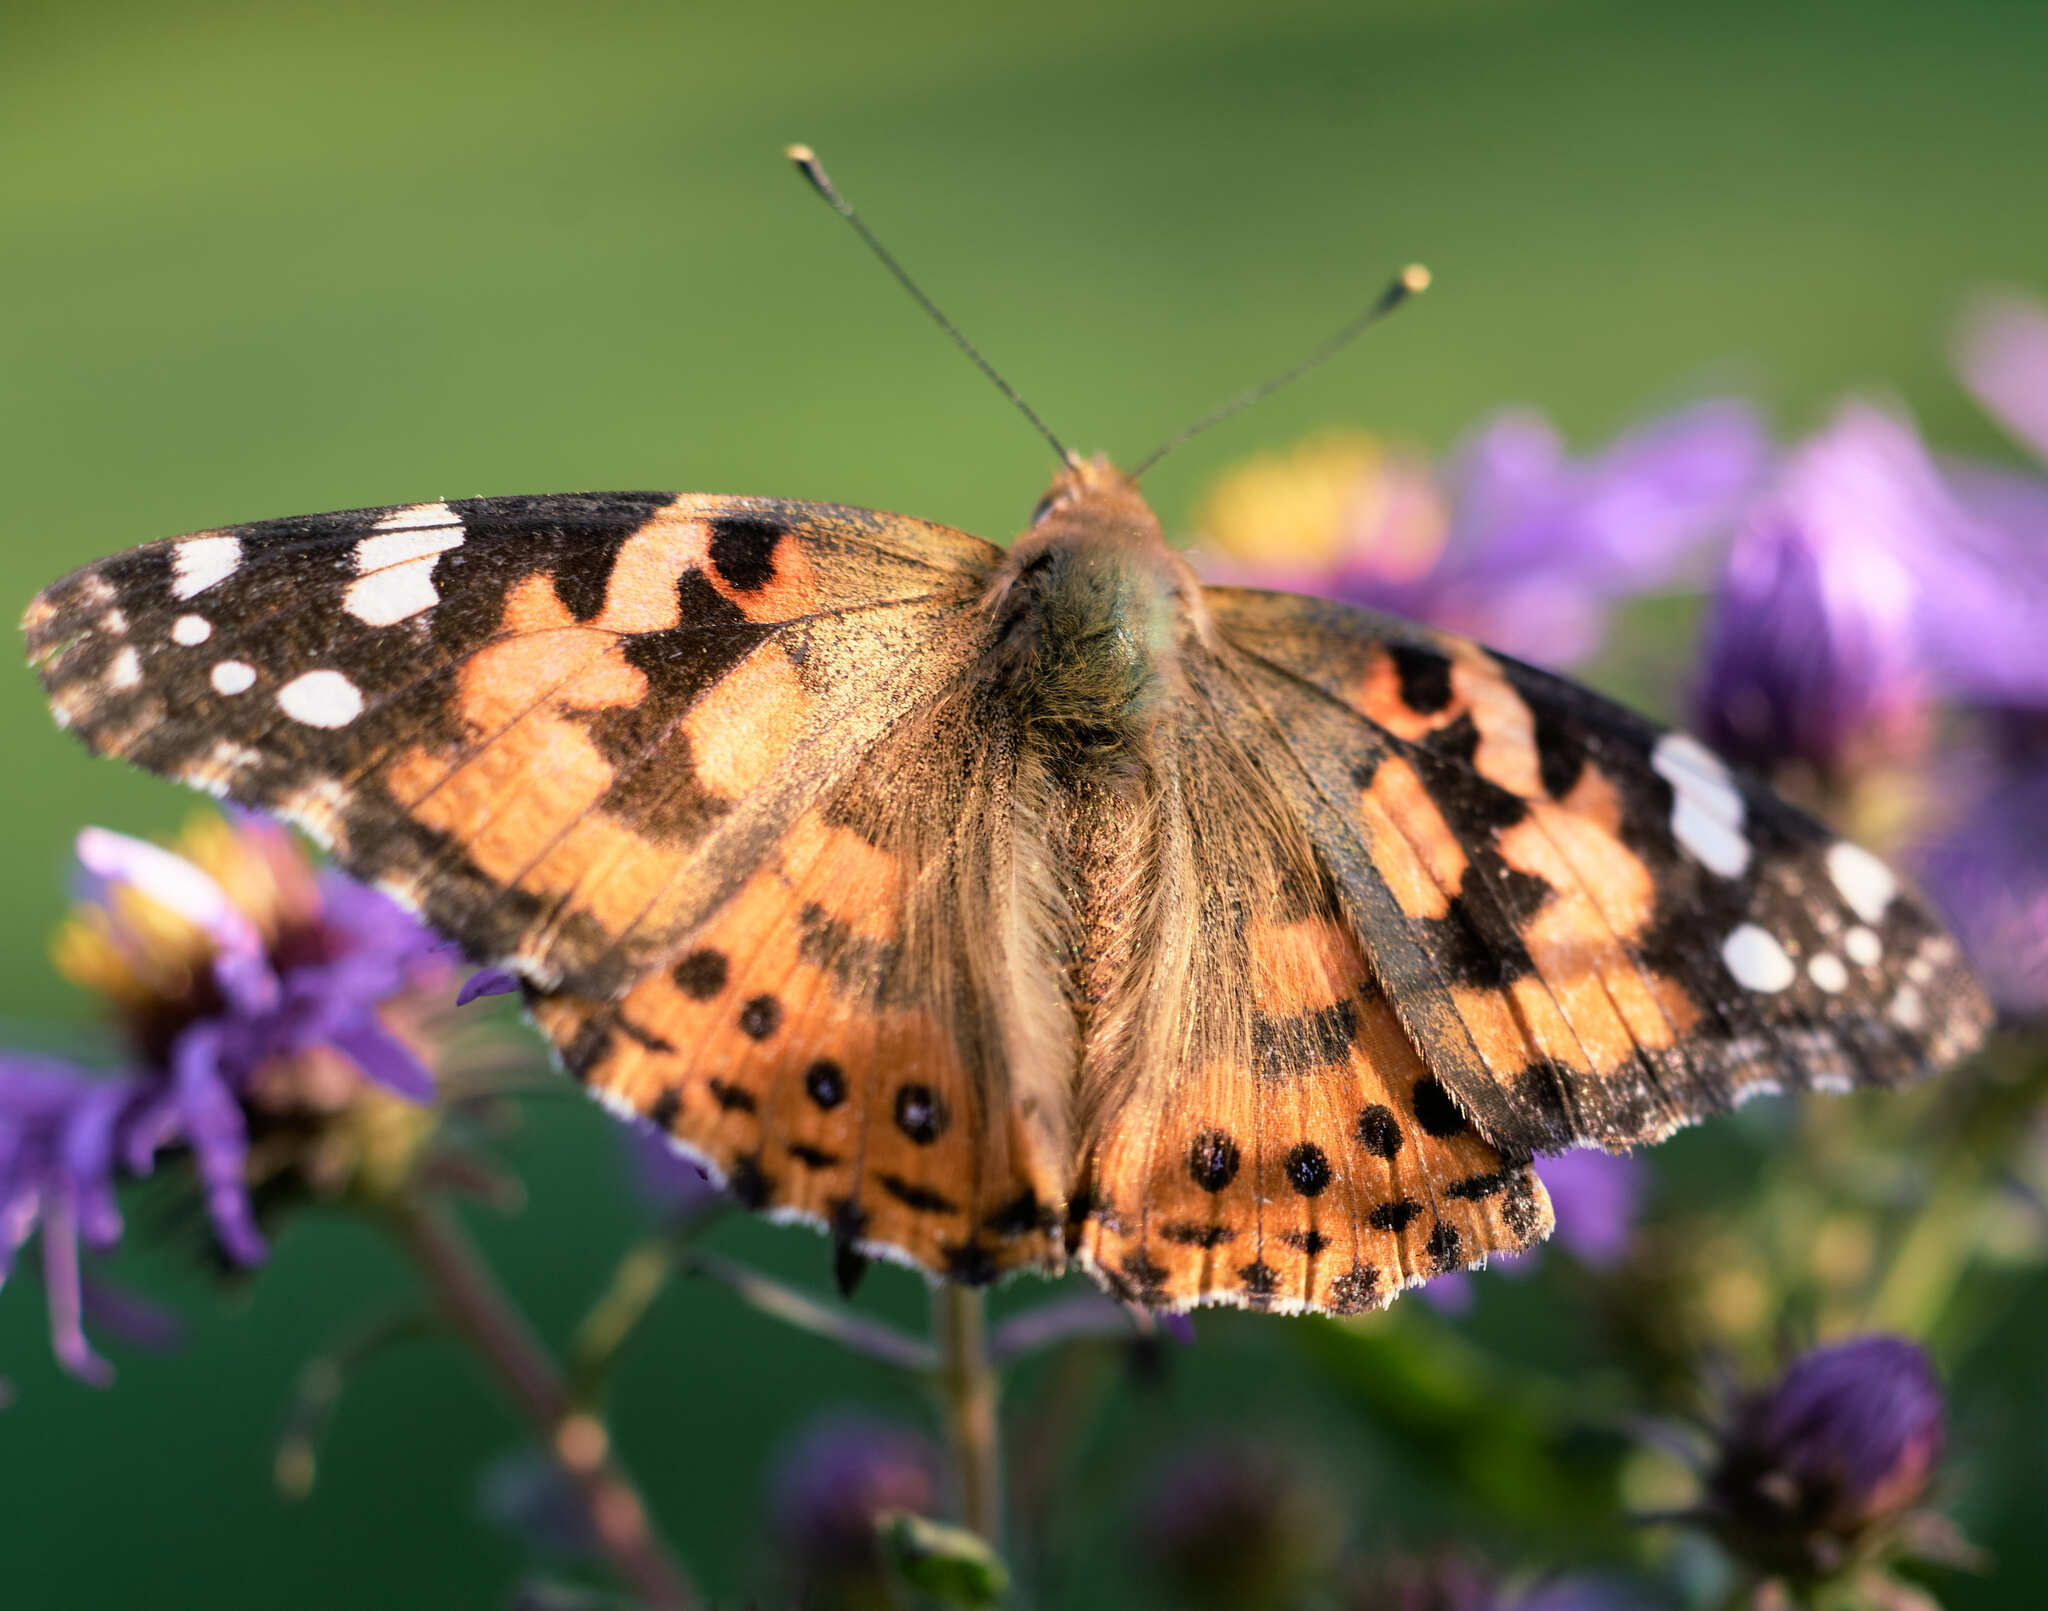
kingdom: Animalia
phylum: Arthropoda
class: Insecta
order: Lepidoptera
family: Nymphalidae
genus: Vanessa
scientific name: Vanessa cardui
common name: Painted lady
